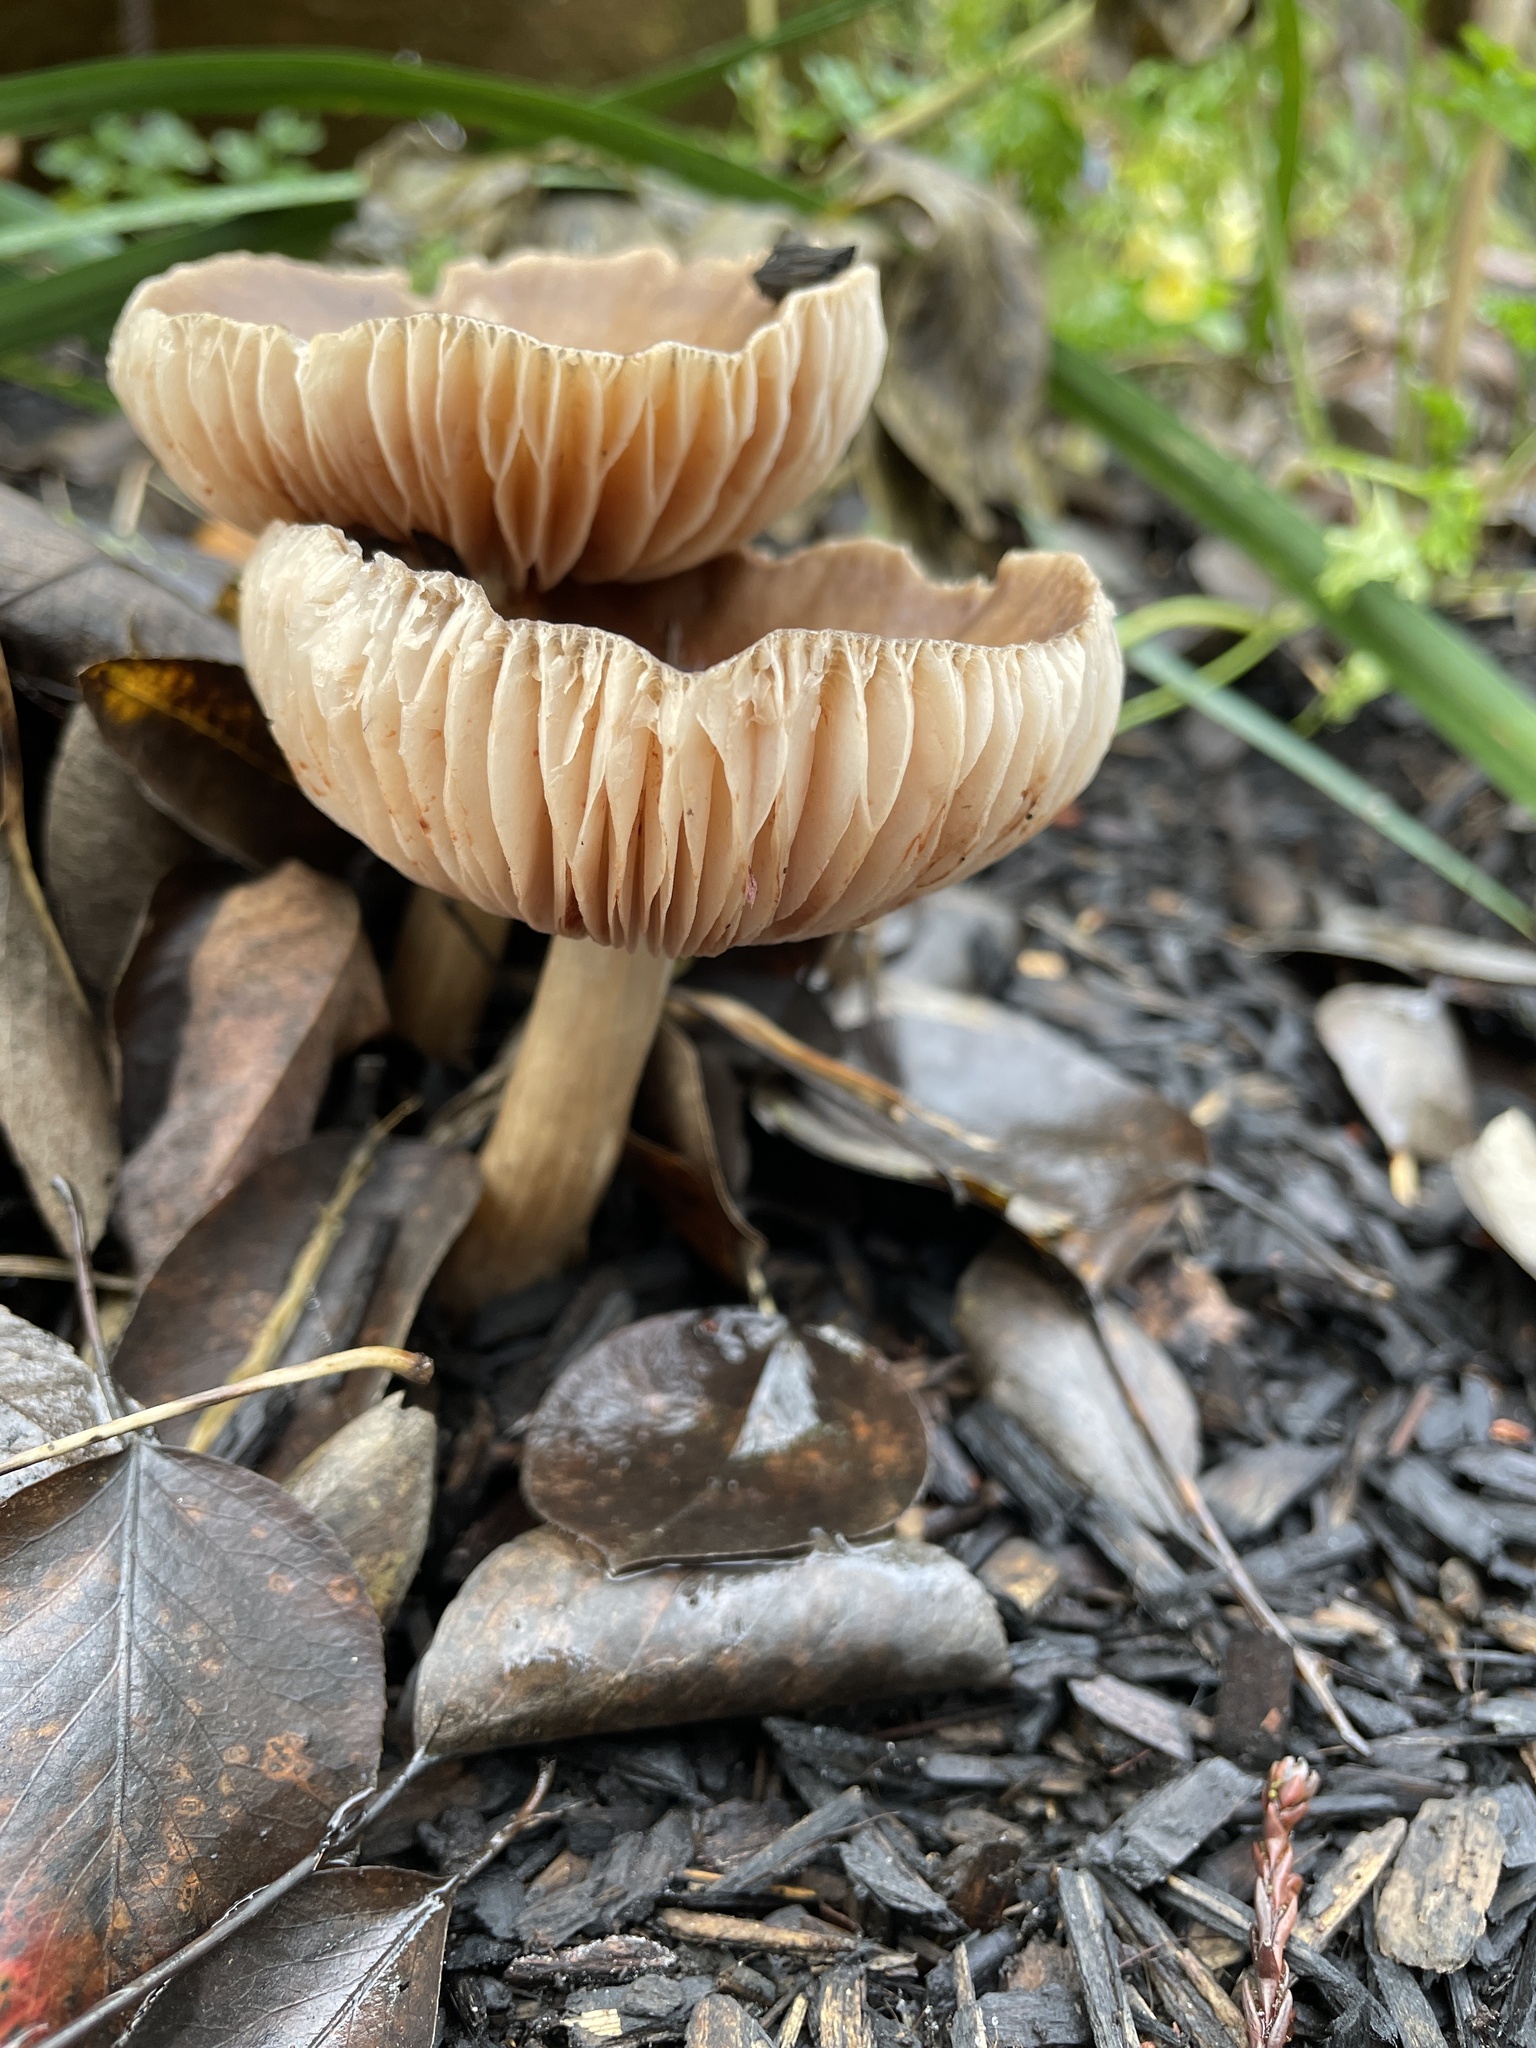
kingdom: Fungi
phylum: Basidiomycota
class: Agaricomycetes
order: Agaricales
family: Entolomataceae
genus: Entoloma
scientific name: Entoloma ferruginans
